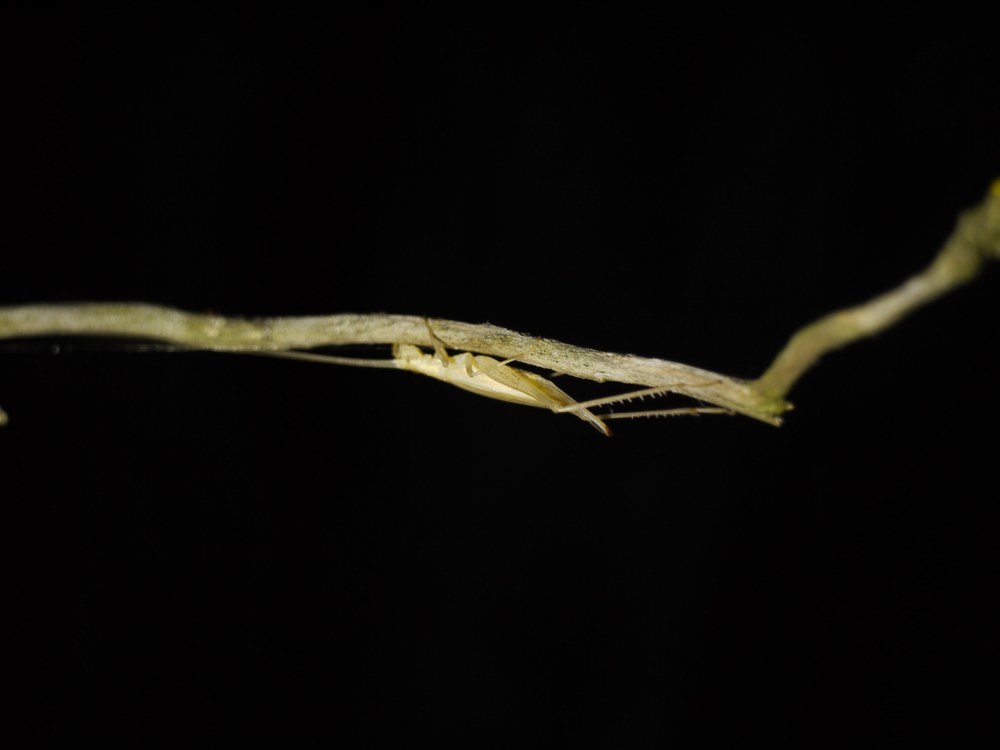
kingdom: Animalia
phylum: Arthropoda
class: Insecta
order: Orthoptera
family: Gryllidae
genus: Oecanthus
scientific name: Oecanthus pellucens
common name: Tree-cricket
